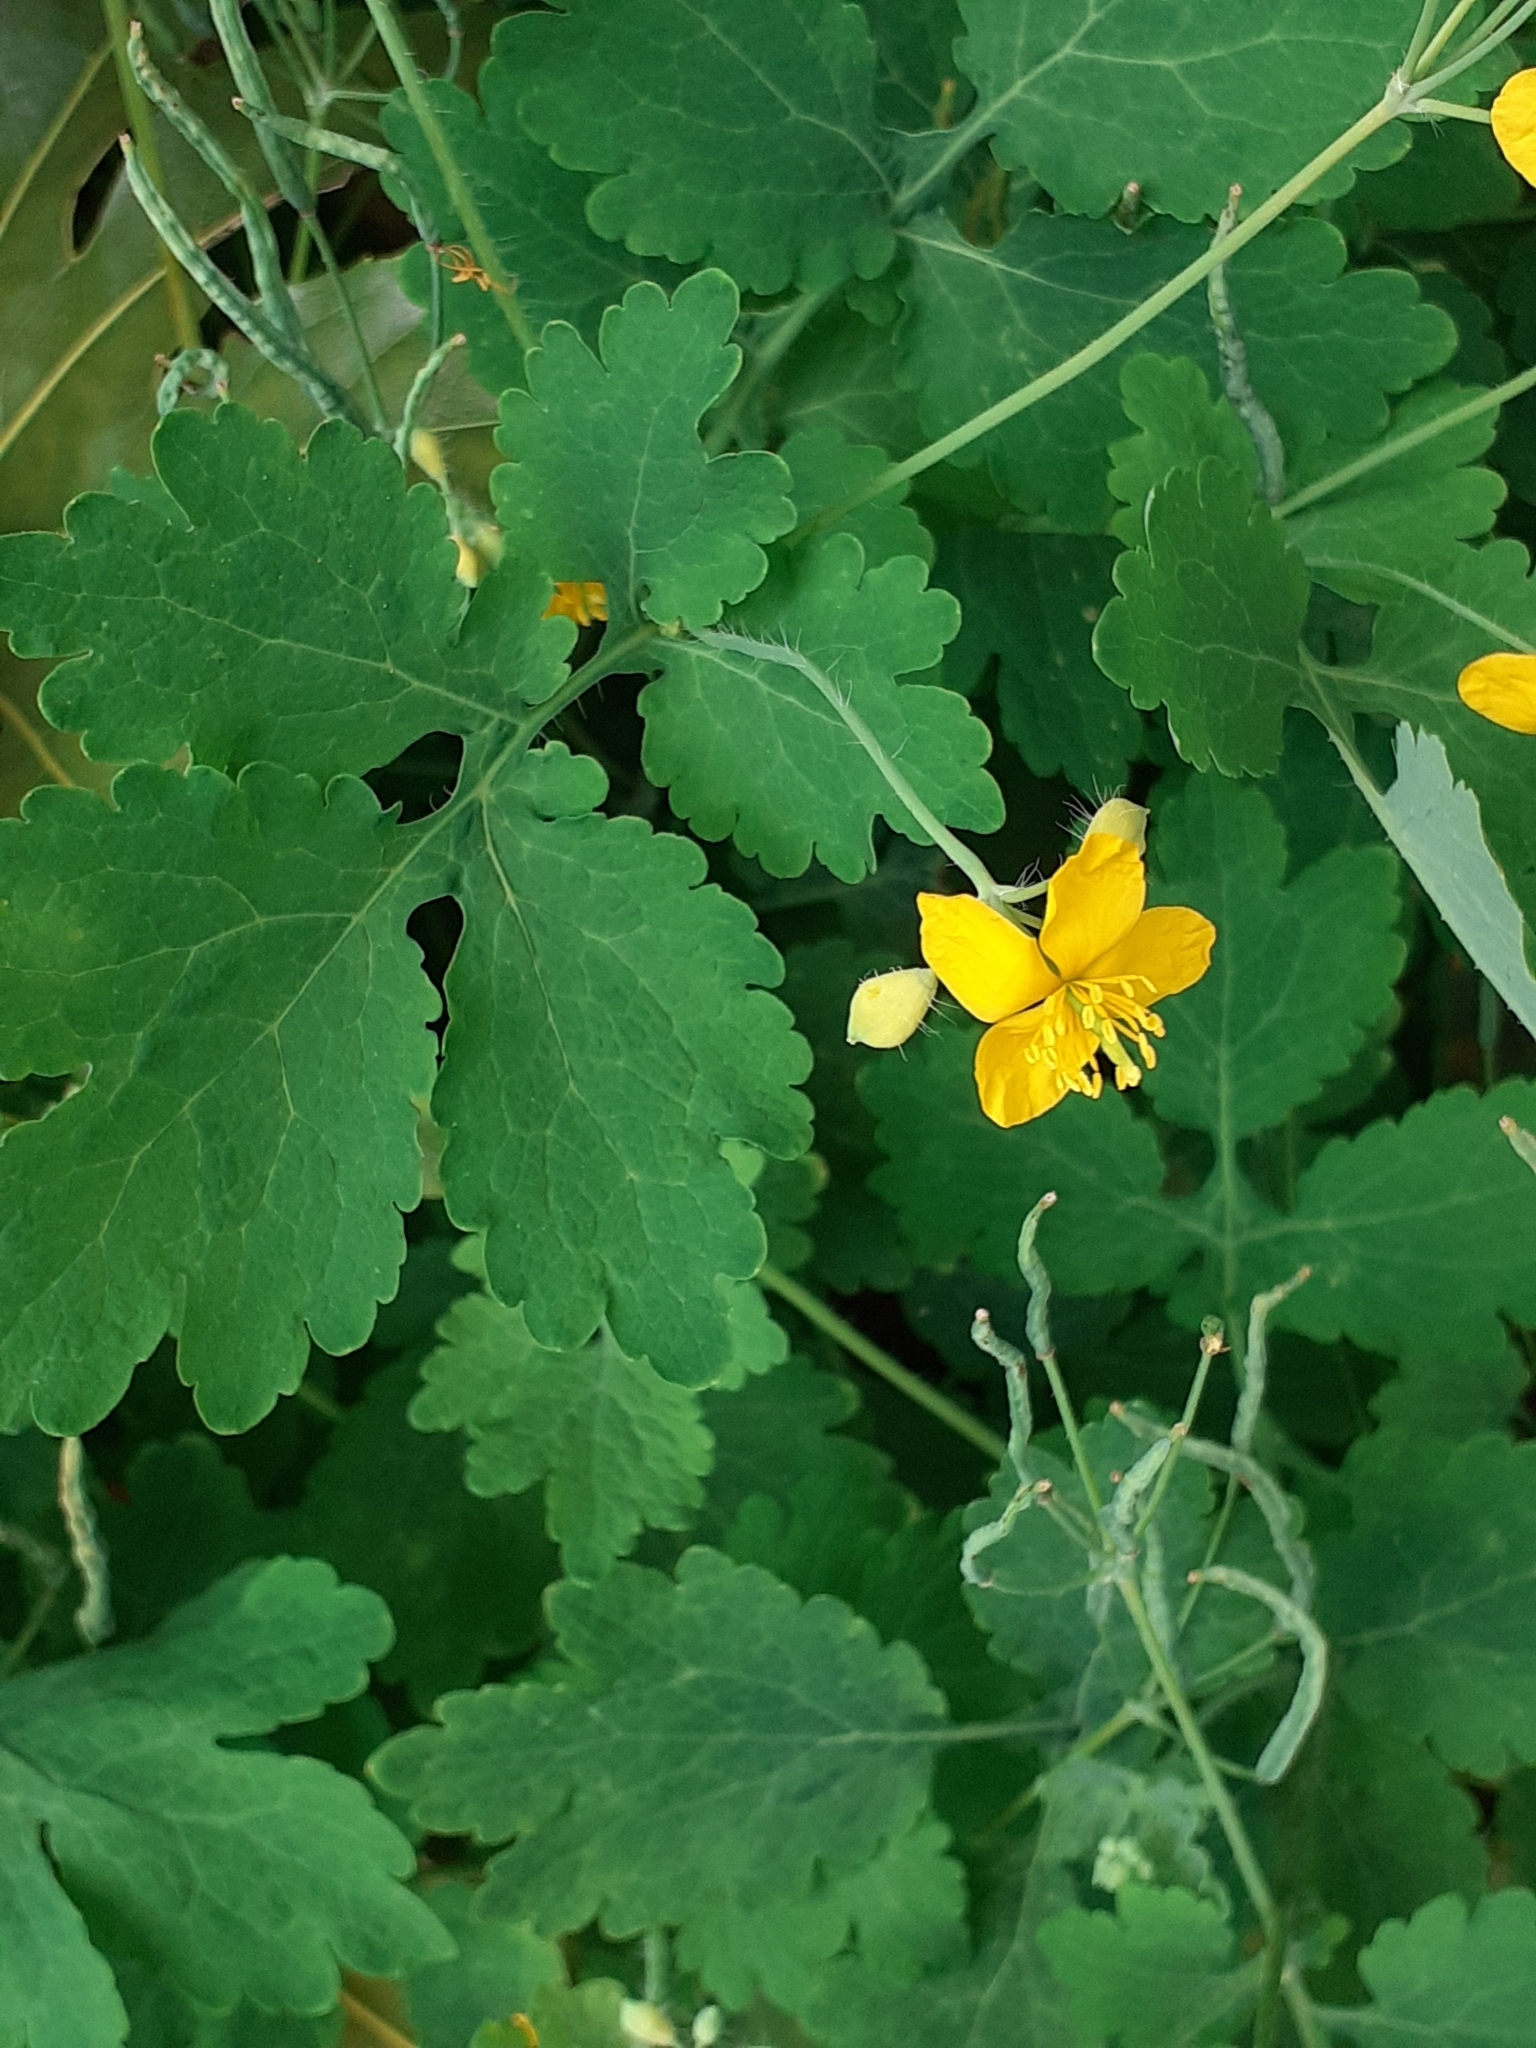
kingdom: Plantae
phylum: Tracheophyta
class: Magnoliopsida
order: Ranunculales
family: Papaveraceae
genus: Chelidonium
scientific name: Chelidonium majus
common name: Greater celandine
